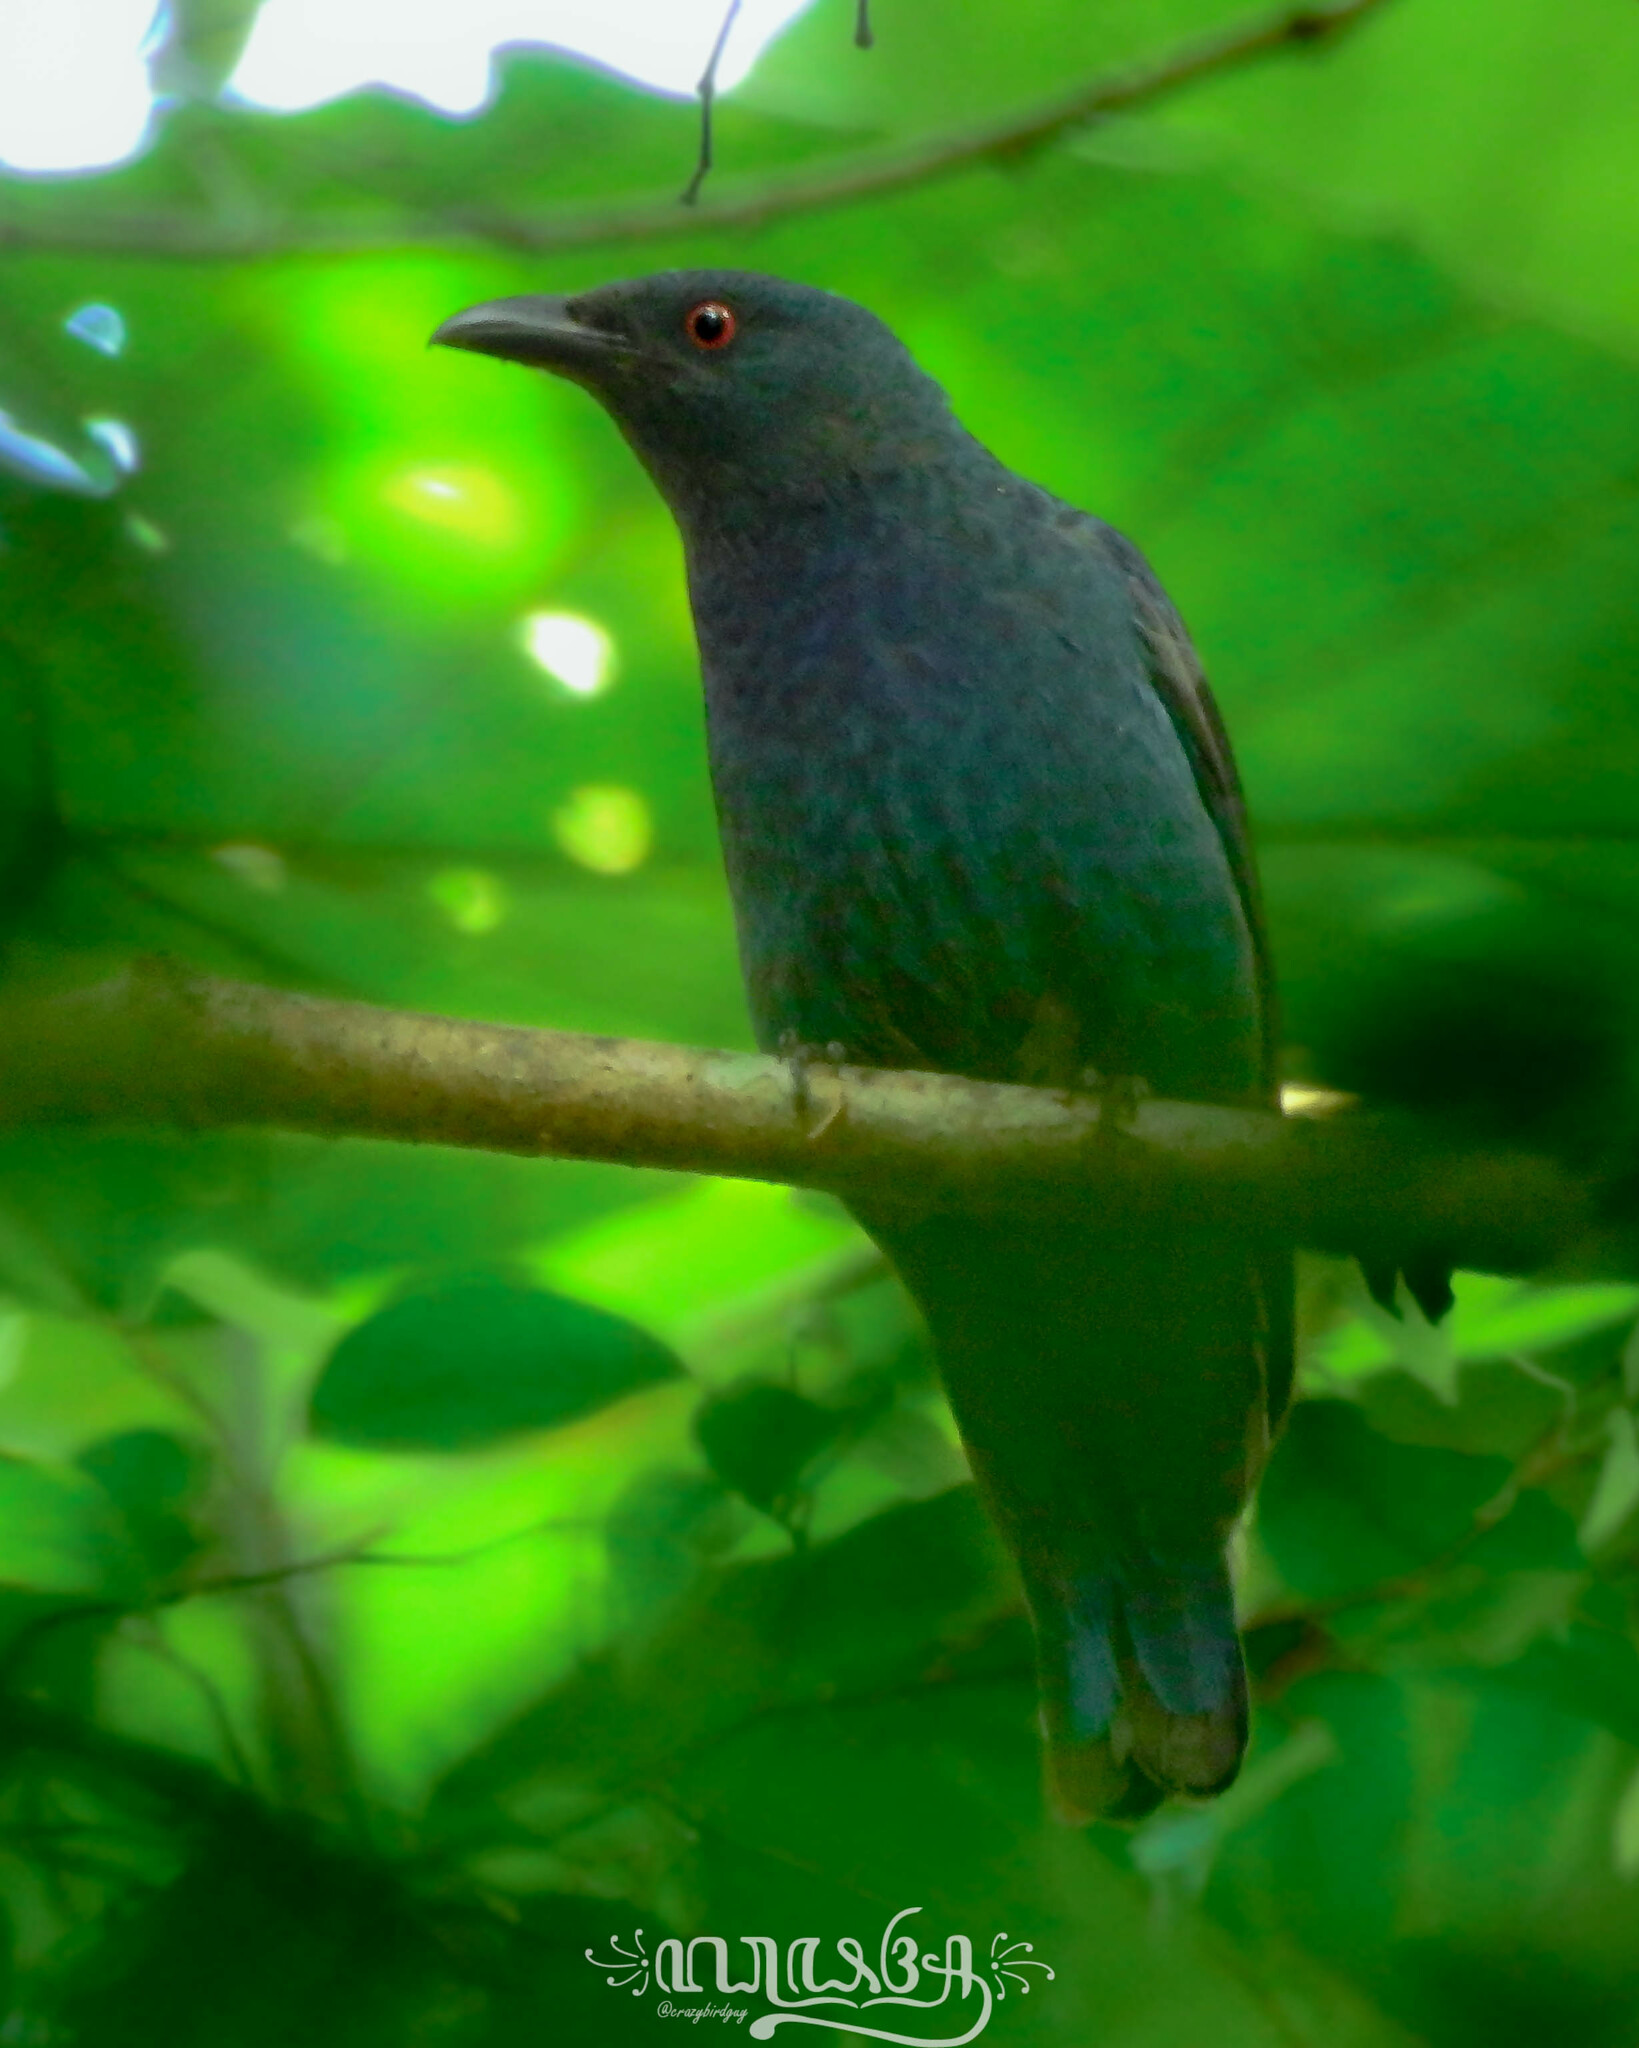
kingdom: Animalia
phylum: Chordata
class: Aves
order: Passeriformes
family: Irenidae
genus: Irena
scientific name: Irena puella
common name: Asian fairy-bluebird
